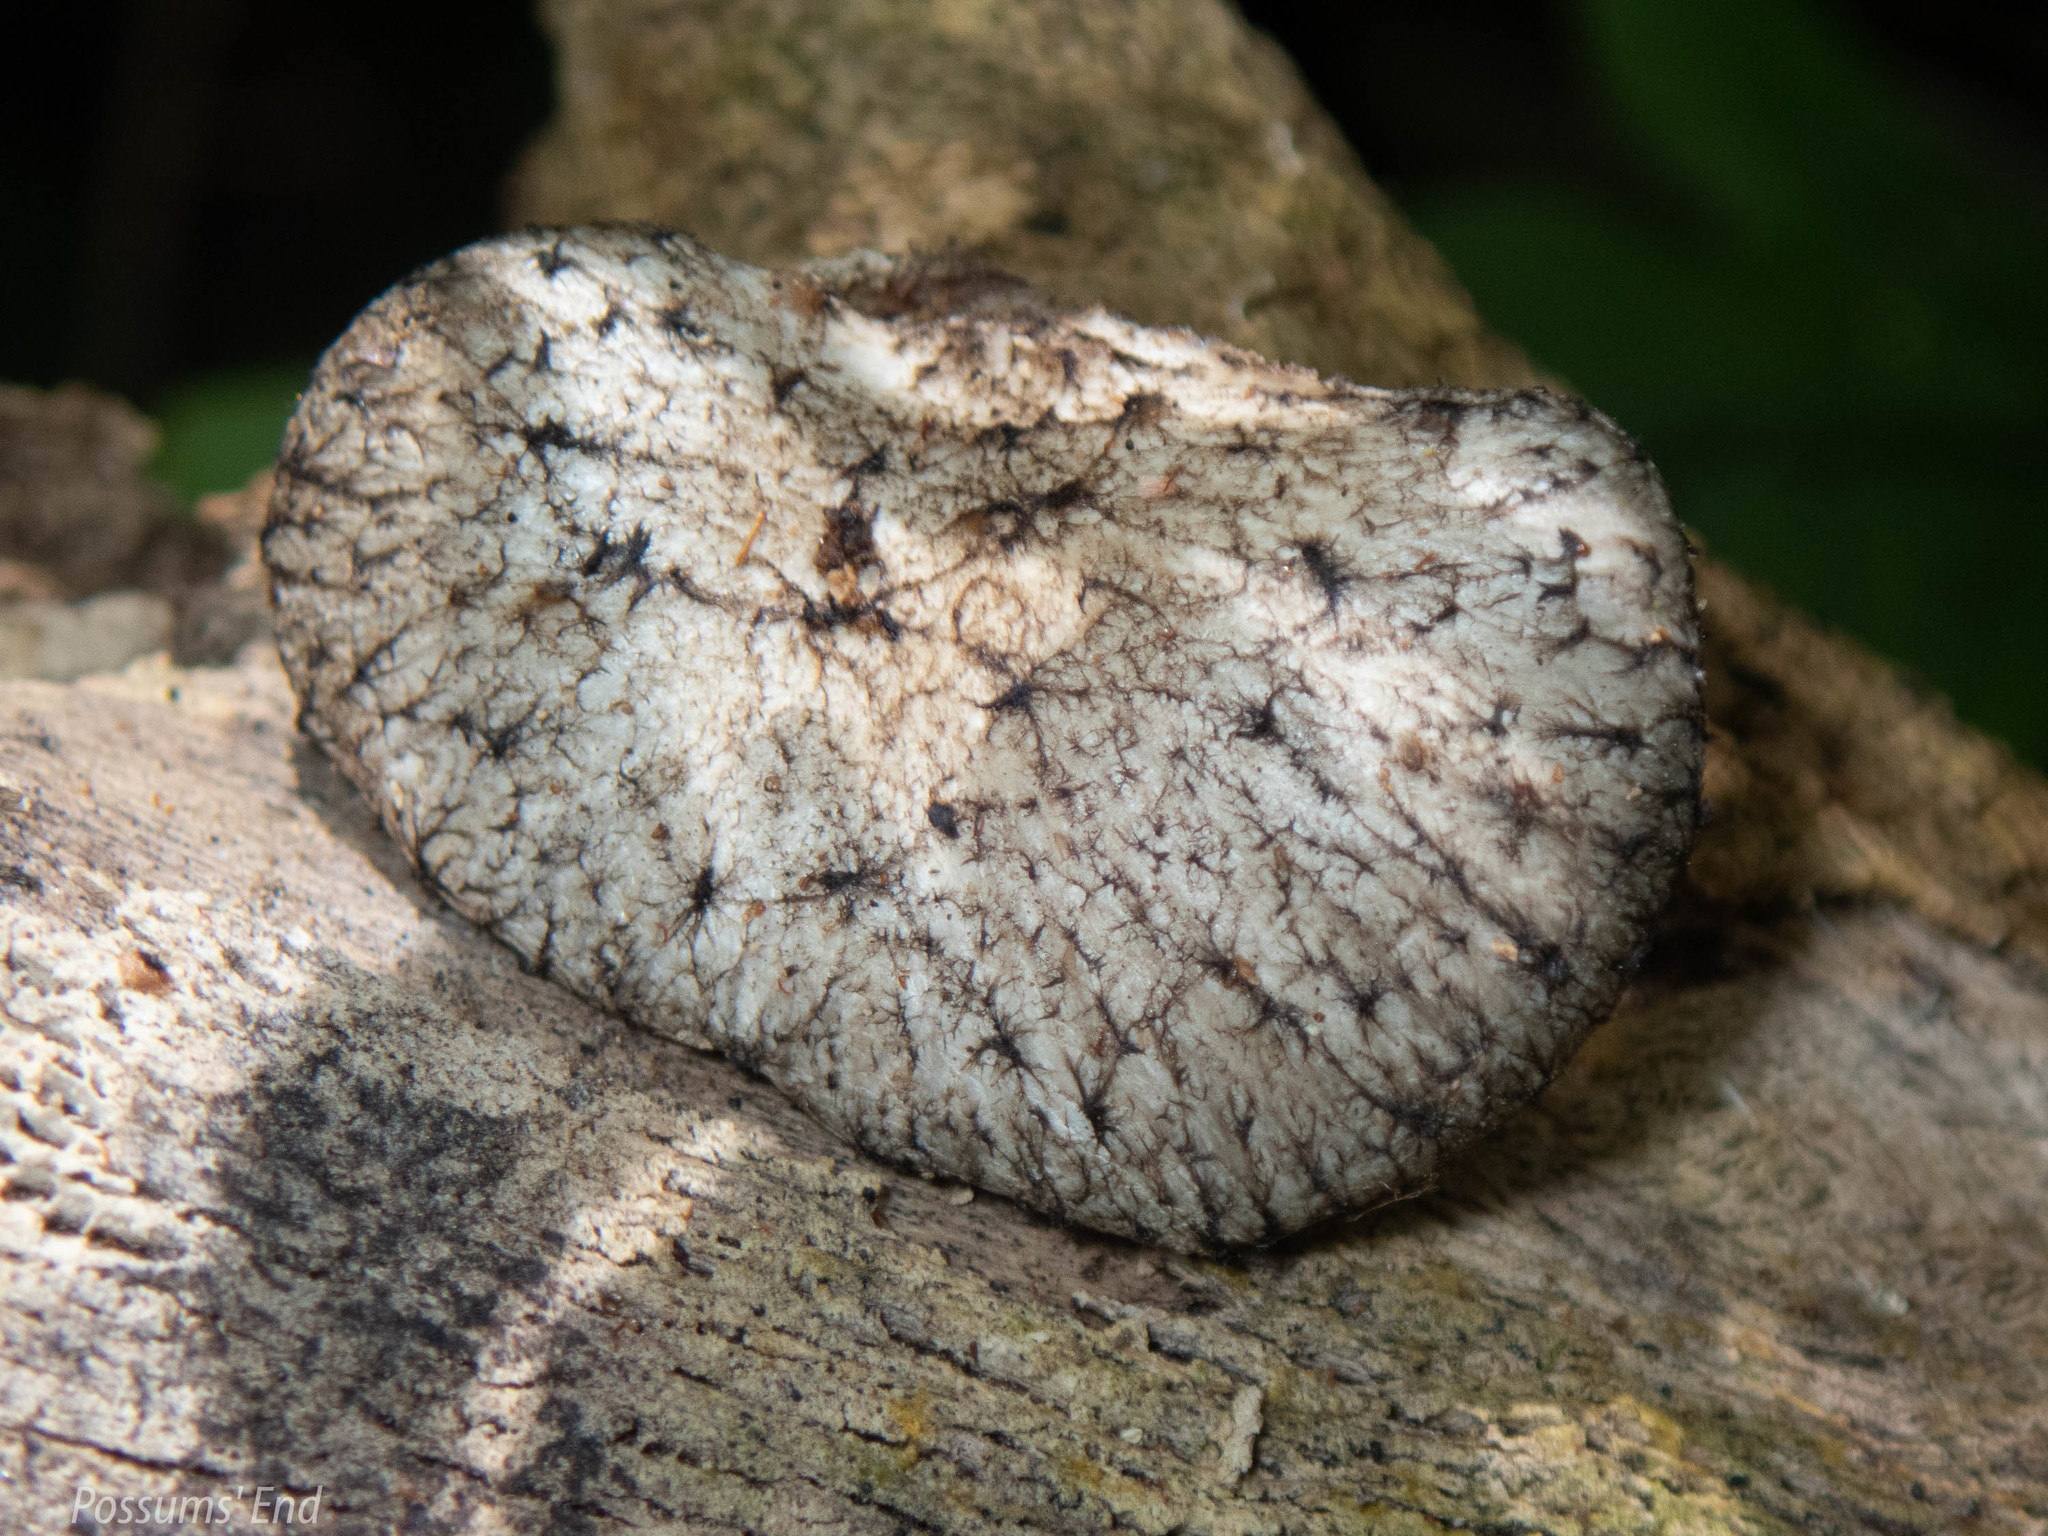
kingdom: Fungi
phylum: Basidiomycota
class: Agaricomycetes
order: Polyporales
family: Polyporaceae
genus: Bresadolia
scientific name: Bresadolia
